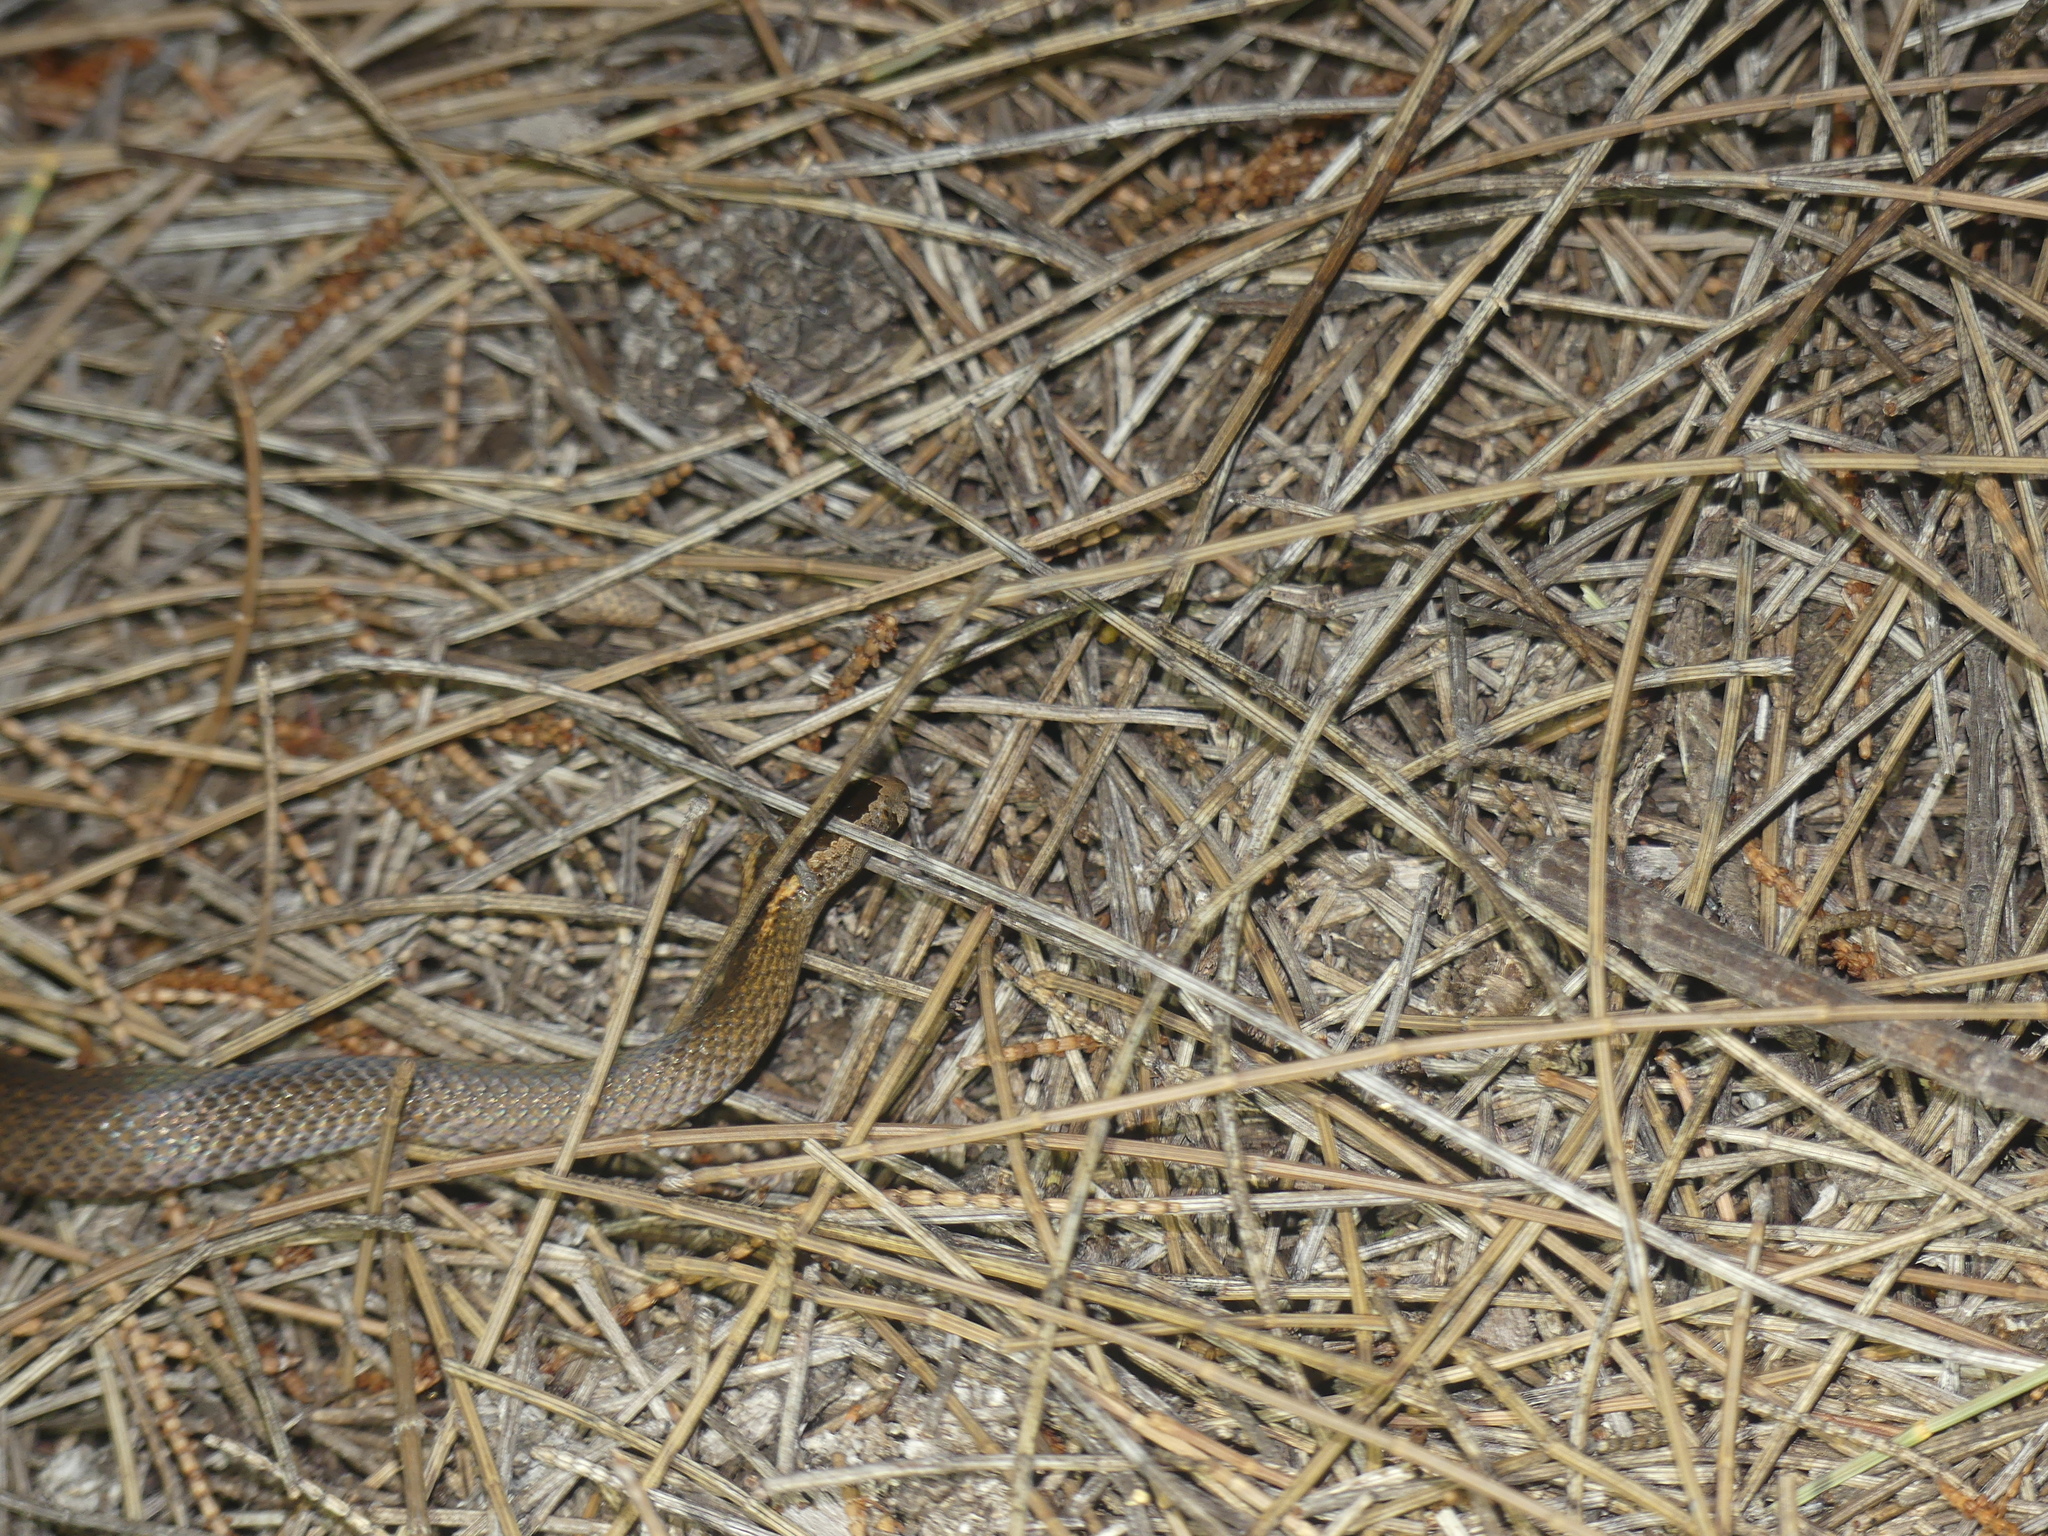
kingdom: Animalia
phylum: Chordata
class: Squamata
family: Elapidae
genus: Cacophis
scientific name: Cacophis squamulosus
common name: Golden crowned snake
